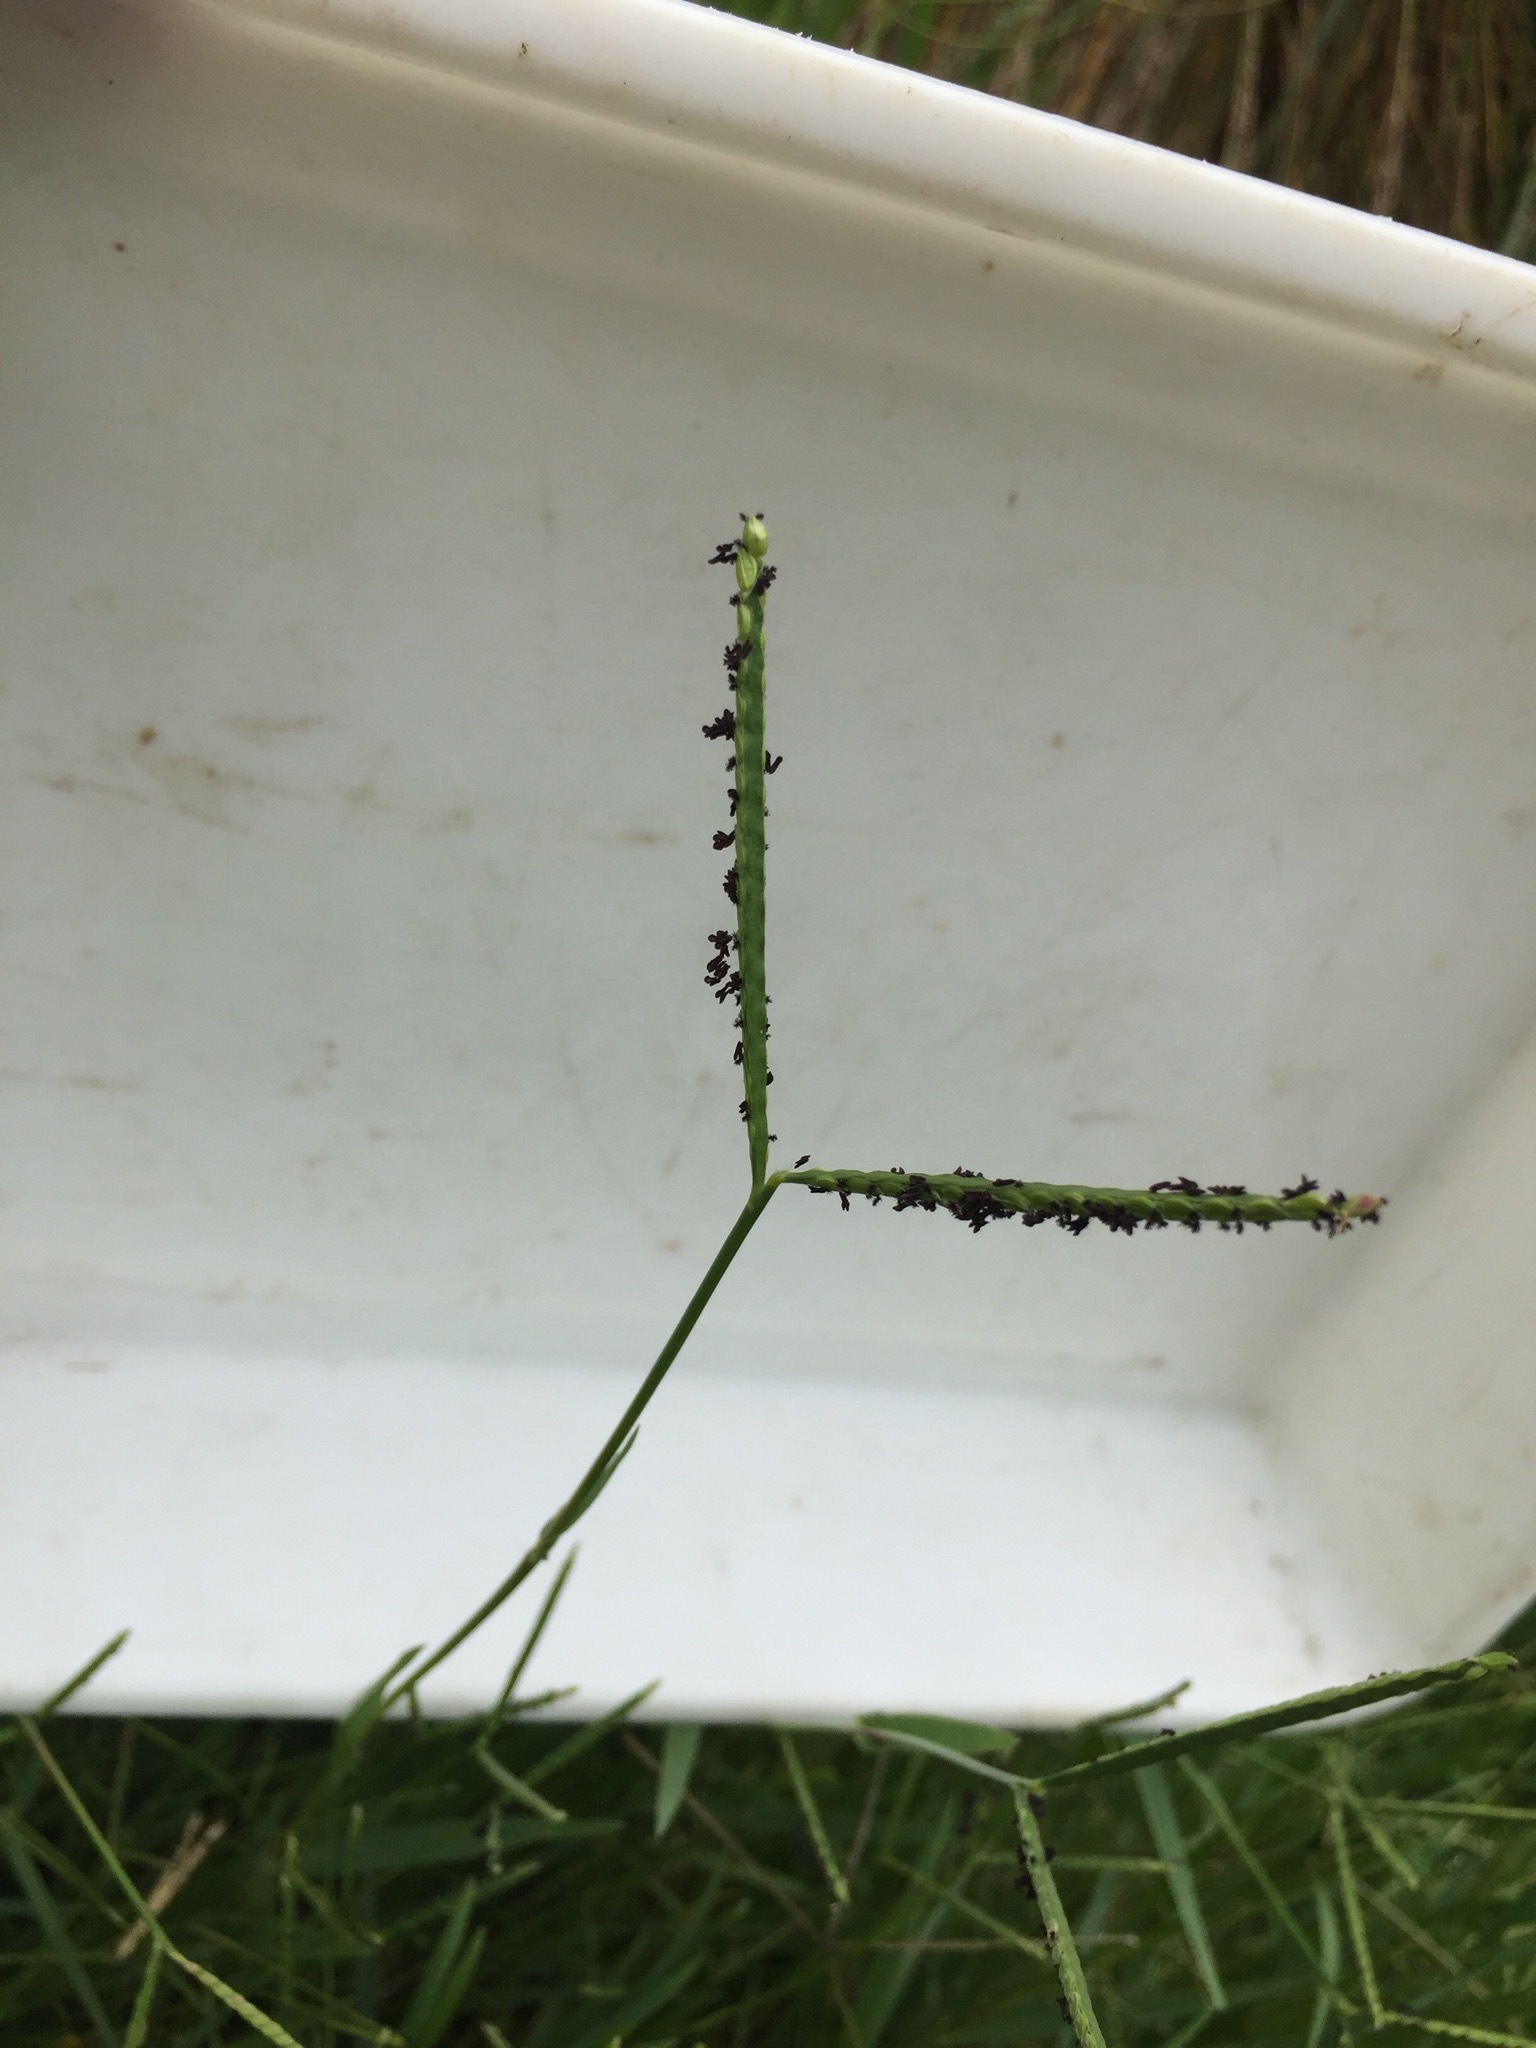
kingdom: Plantae
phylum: Tracheophyta
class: Liliopsida
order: Poales
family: Poaceae
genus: Paspalum
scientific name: Paspalum distichum
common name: Knotgrass
